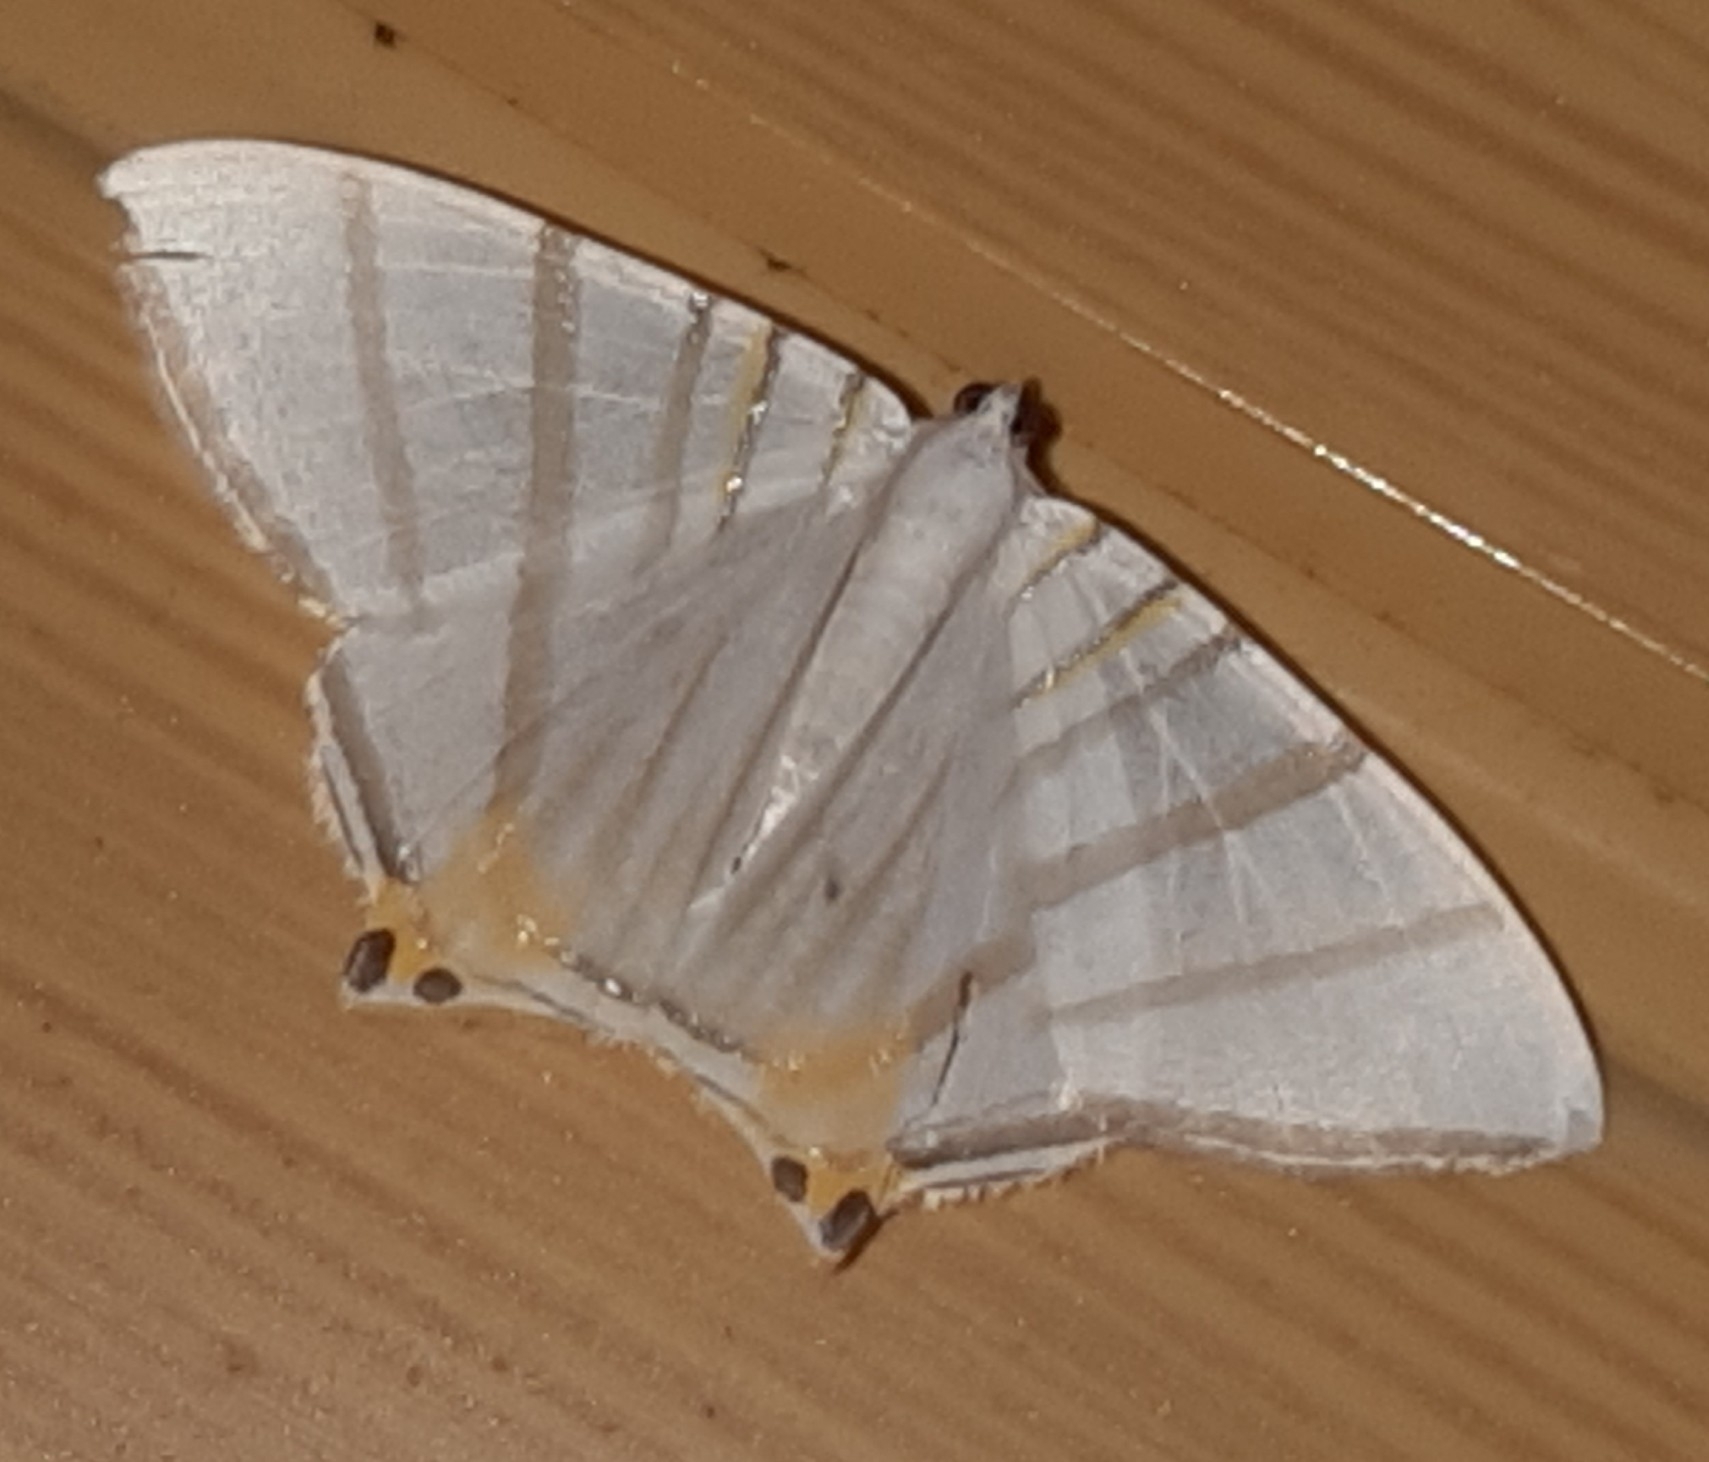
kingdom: Animalia
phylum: Arthropoda
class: Insecta
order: Lepidoptera
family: Geometridae
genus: Phrygionis
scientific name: Phrygionis platinata
